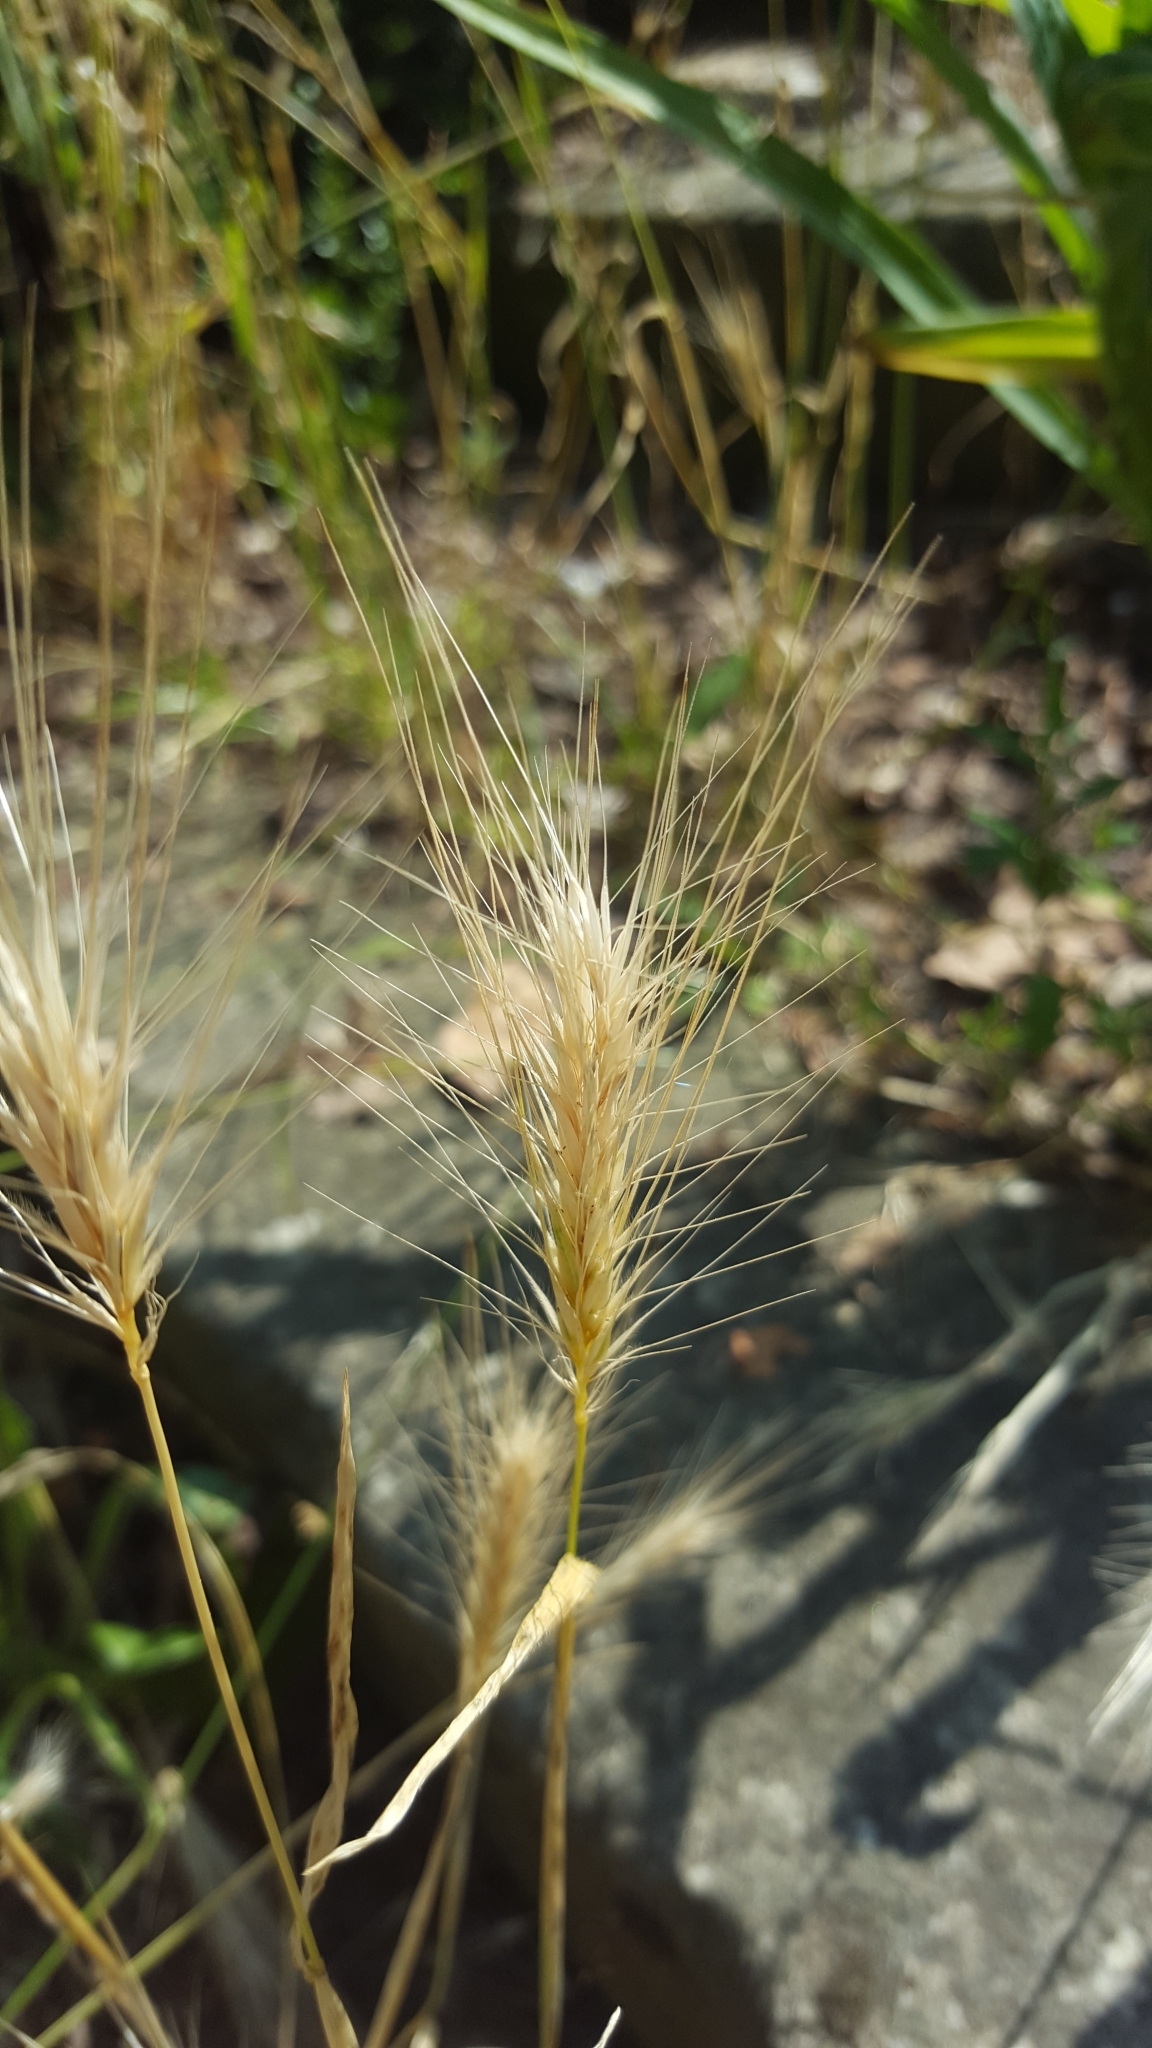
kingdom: Plantae
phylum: Tracheophyta
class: Liliopsida
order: Poales
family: Poaceae
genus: Hordeum
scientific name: Hordeum murinum
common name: Wall barley
